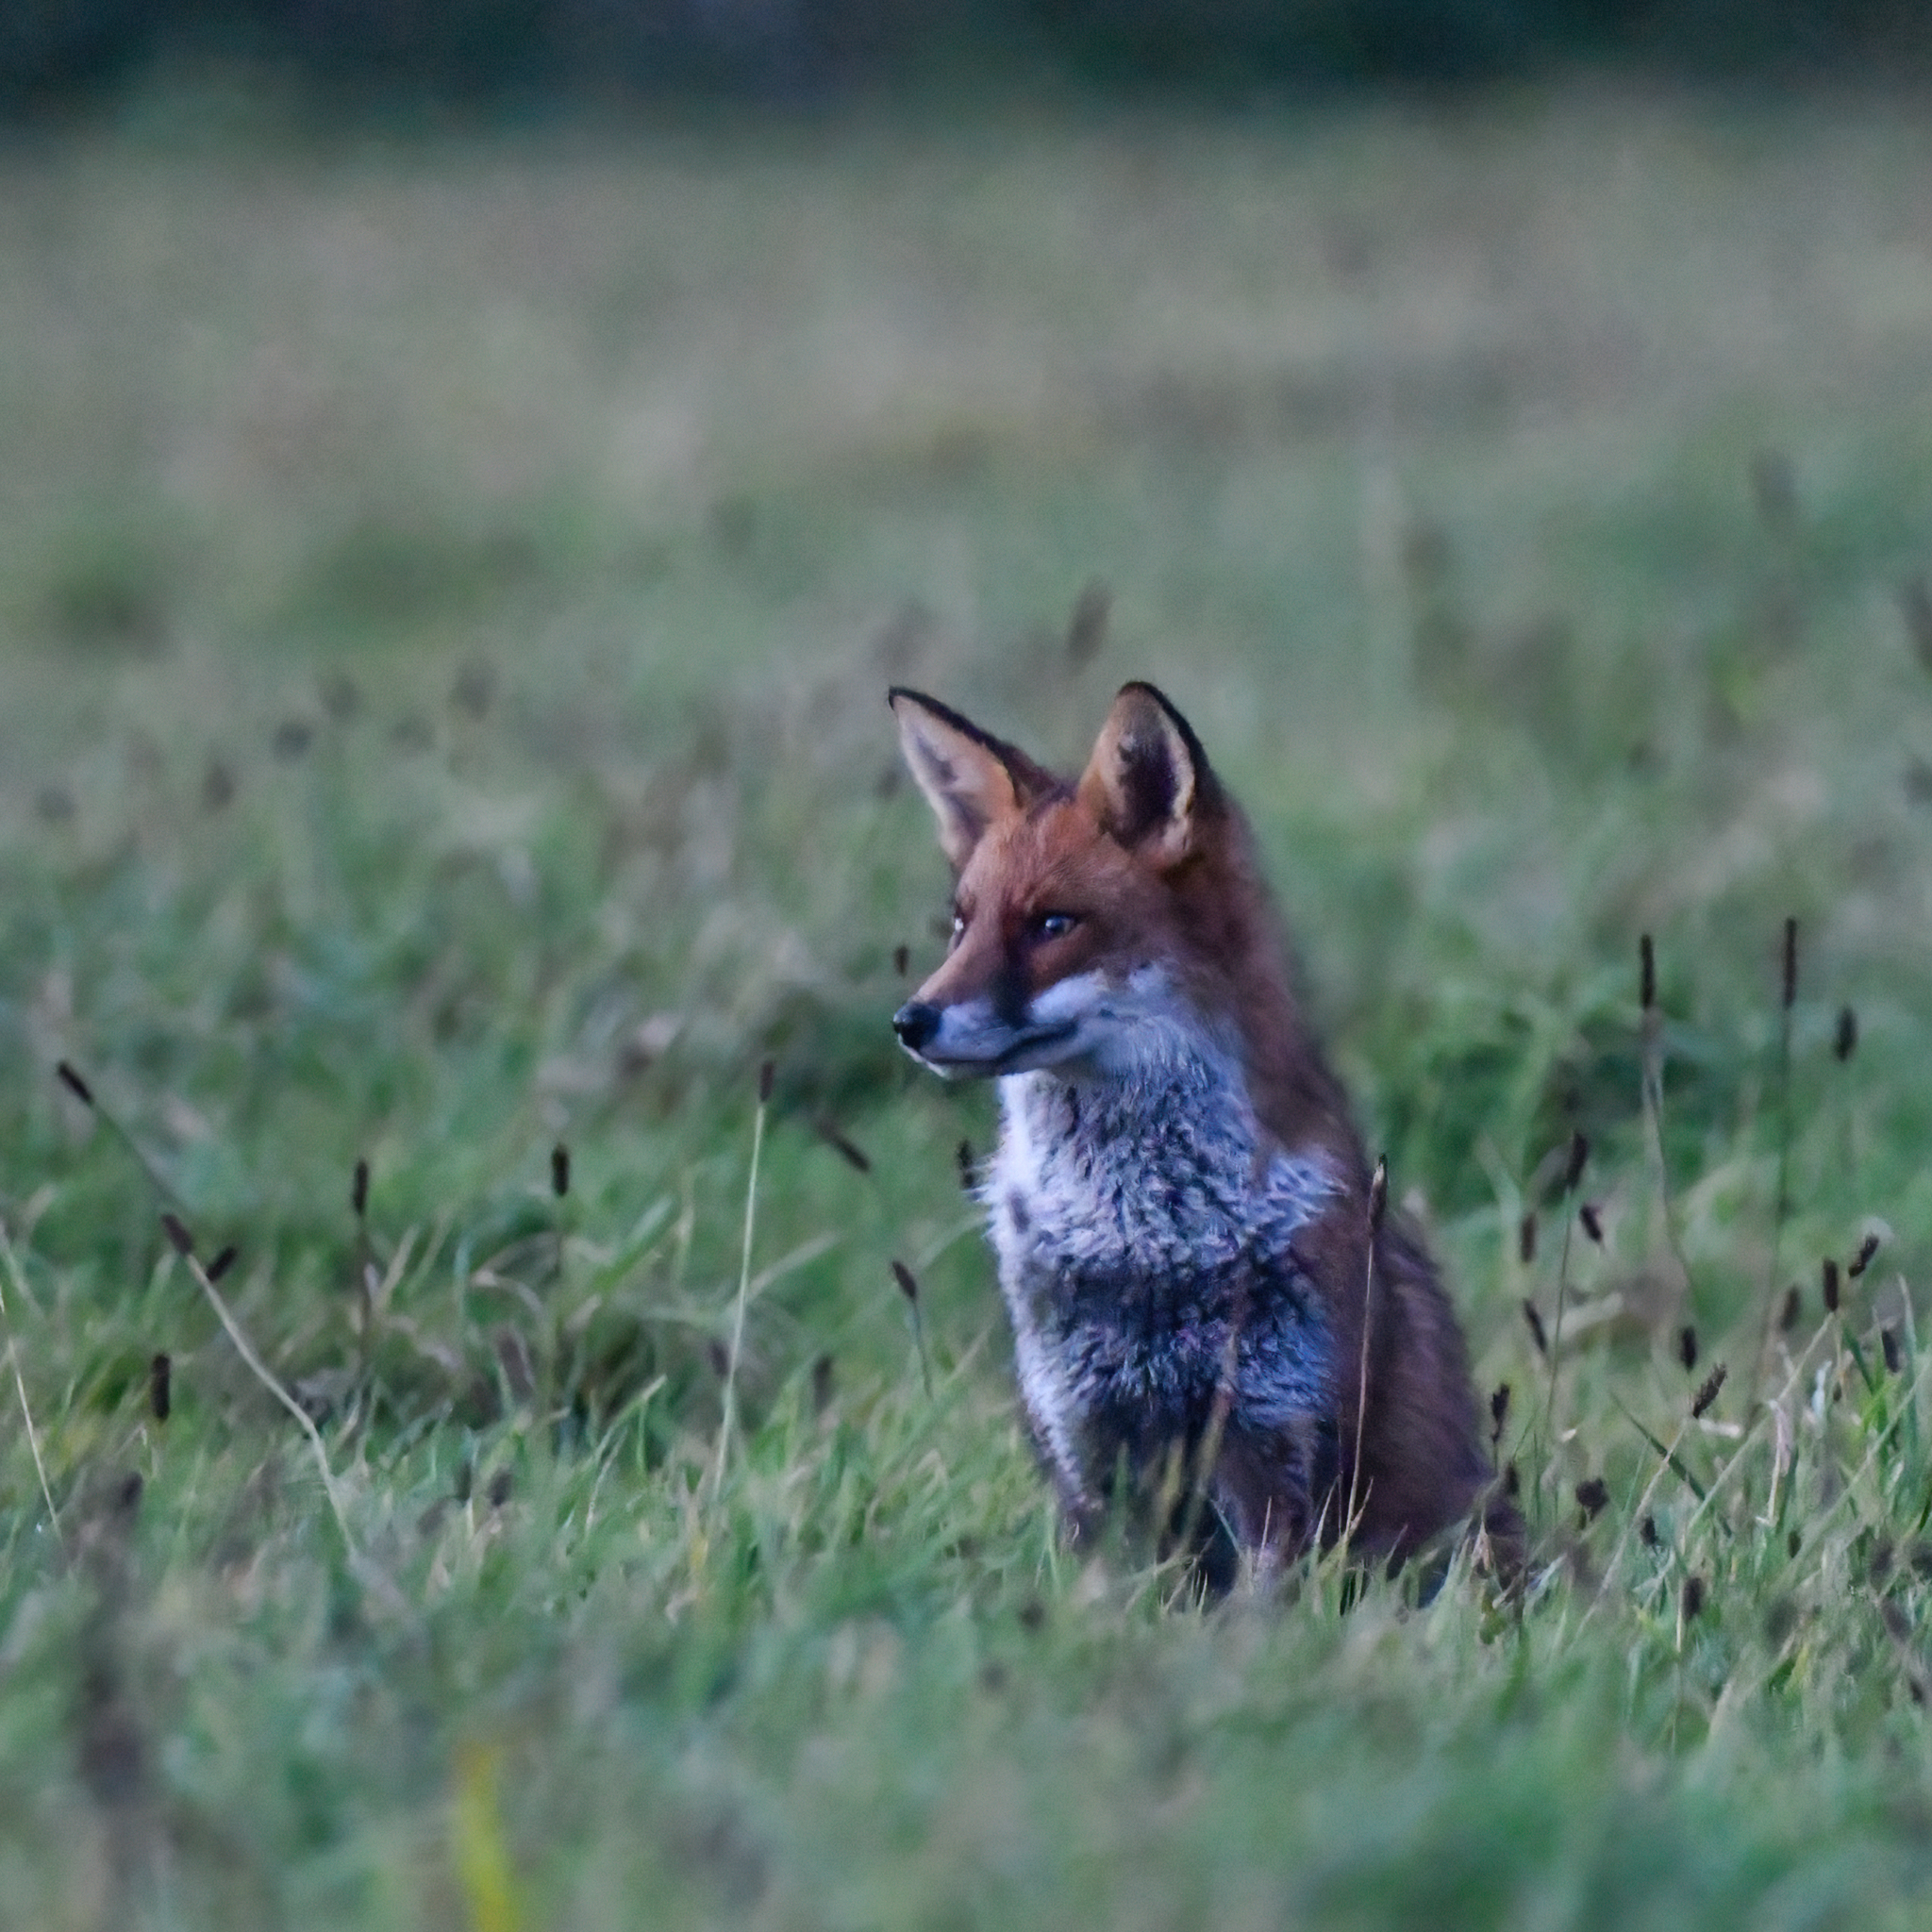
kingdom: Animalia
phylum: Chordata
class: Mammalia
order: Carnivora
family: Canidae
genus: Vulpes
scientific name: Vulpes vulpes
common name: Red fox
